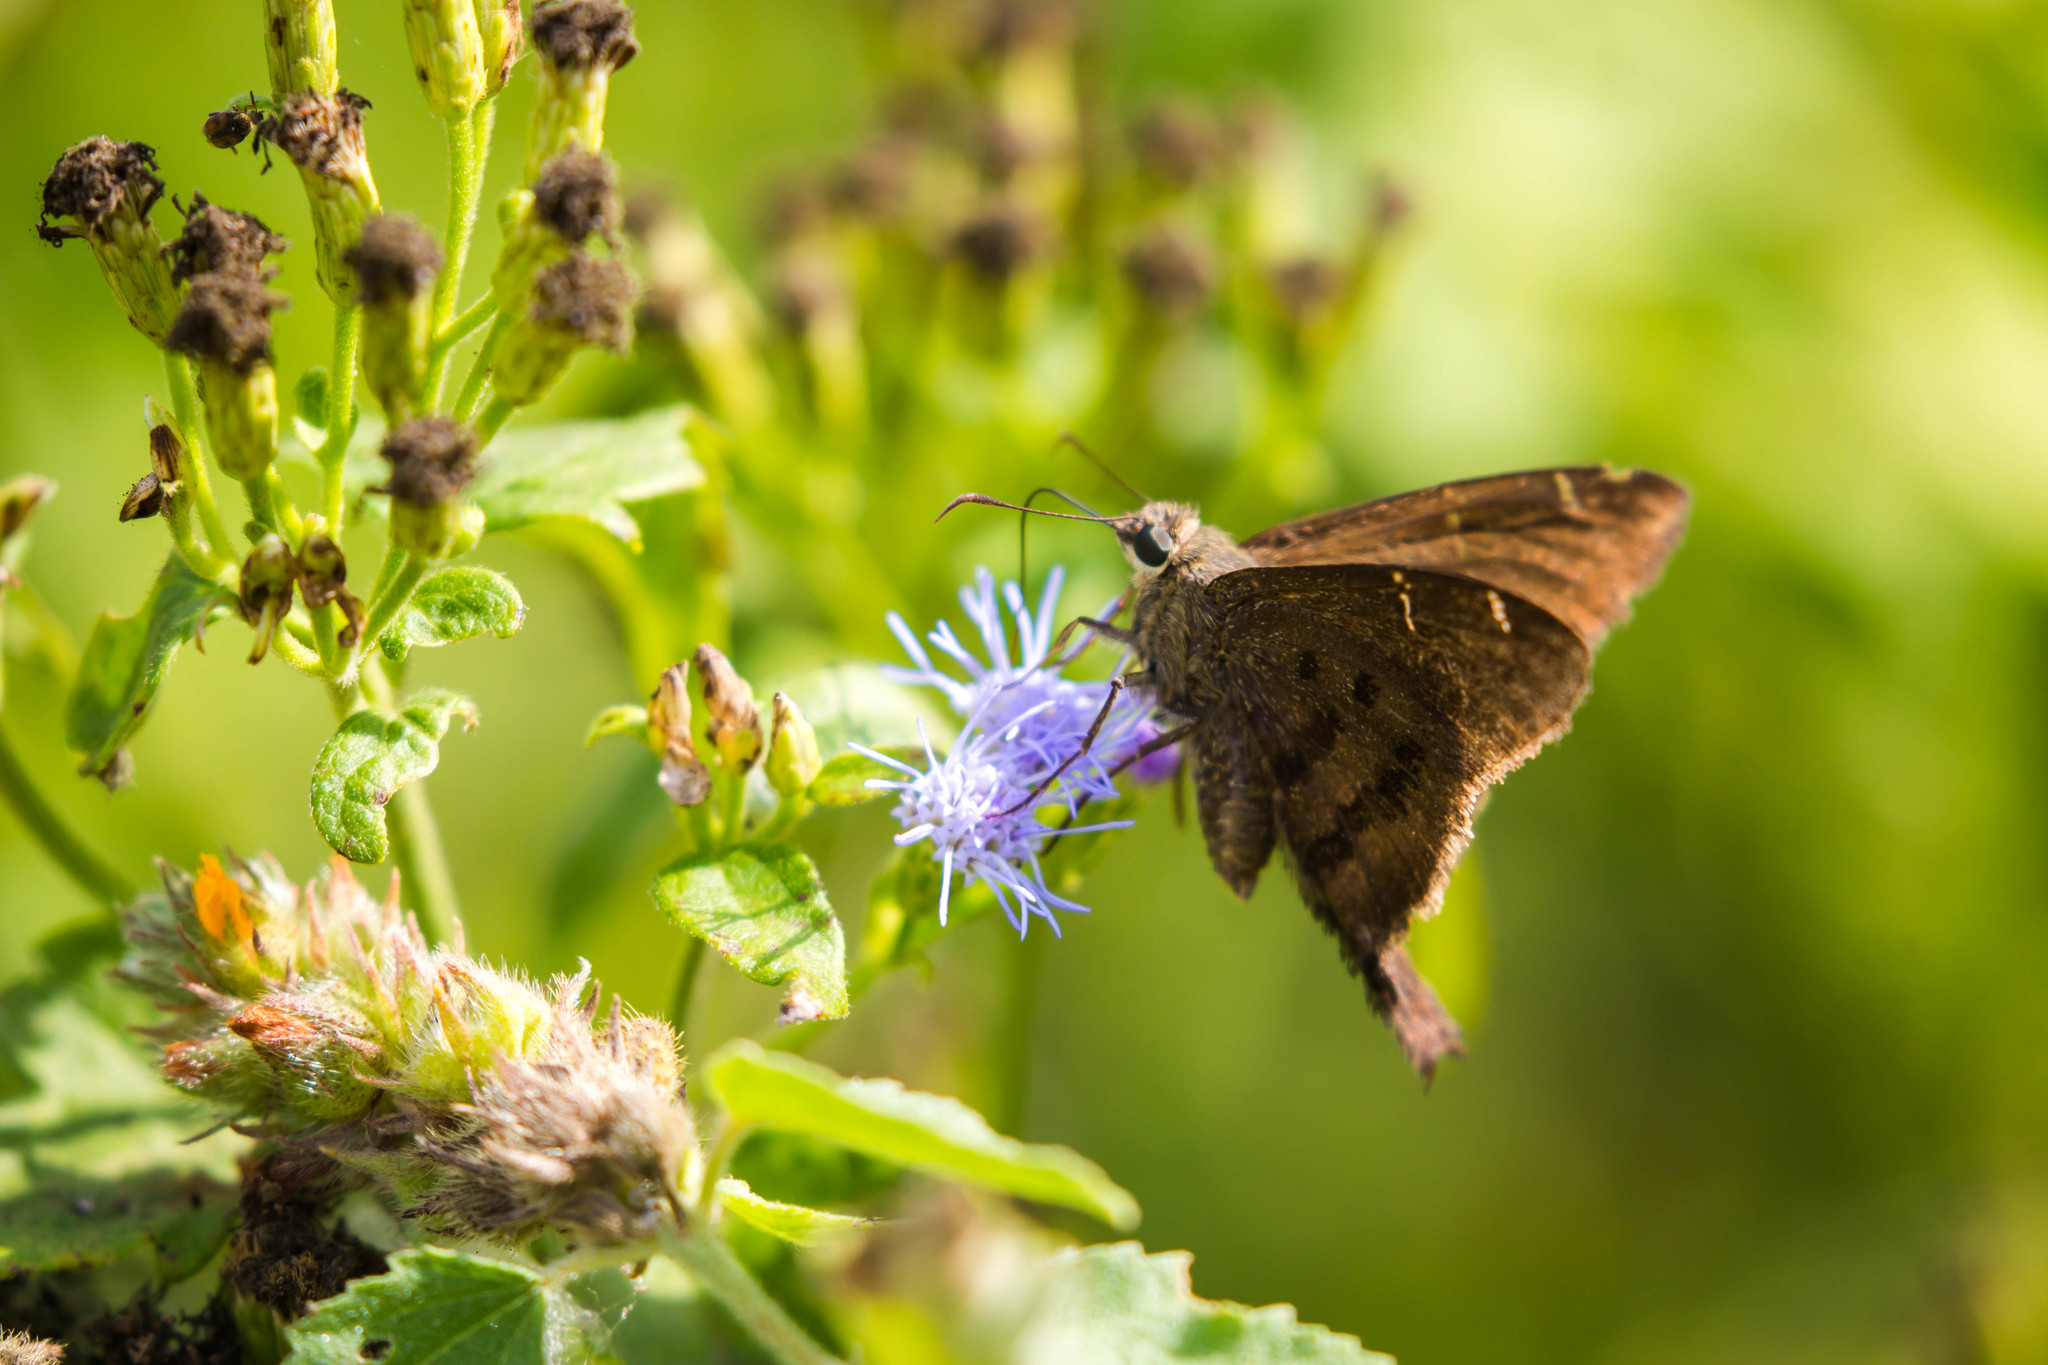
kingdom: Animalia
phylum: Arthropoda
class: Insecta
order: Lepidoptera
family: Hesperiidae
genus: Urbanus
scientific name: Urbanus procne
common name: Brown longtail
